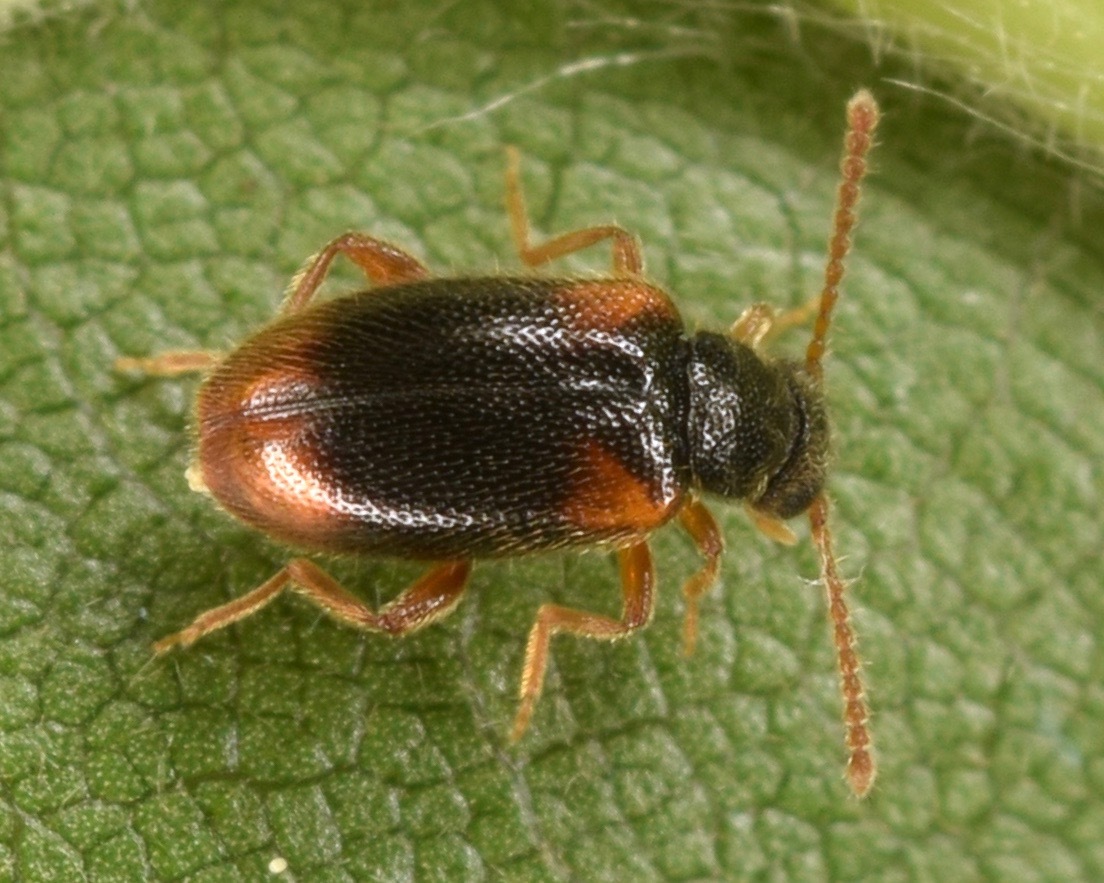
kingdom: Animalia
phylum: Arthropoda
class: Insecta
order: Coleoptera
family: Aderidae
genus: Zonantes
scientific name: Zonantes fasciatus
